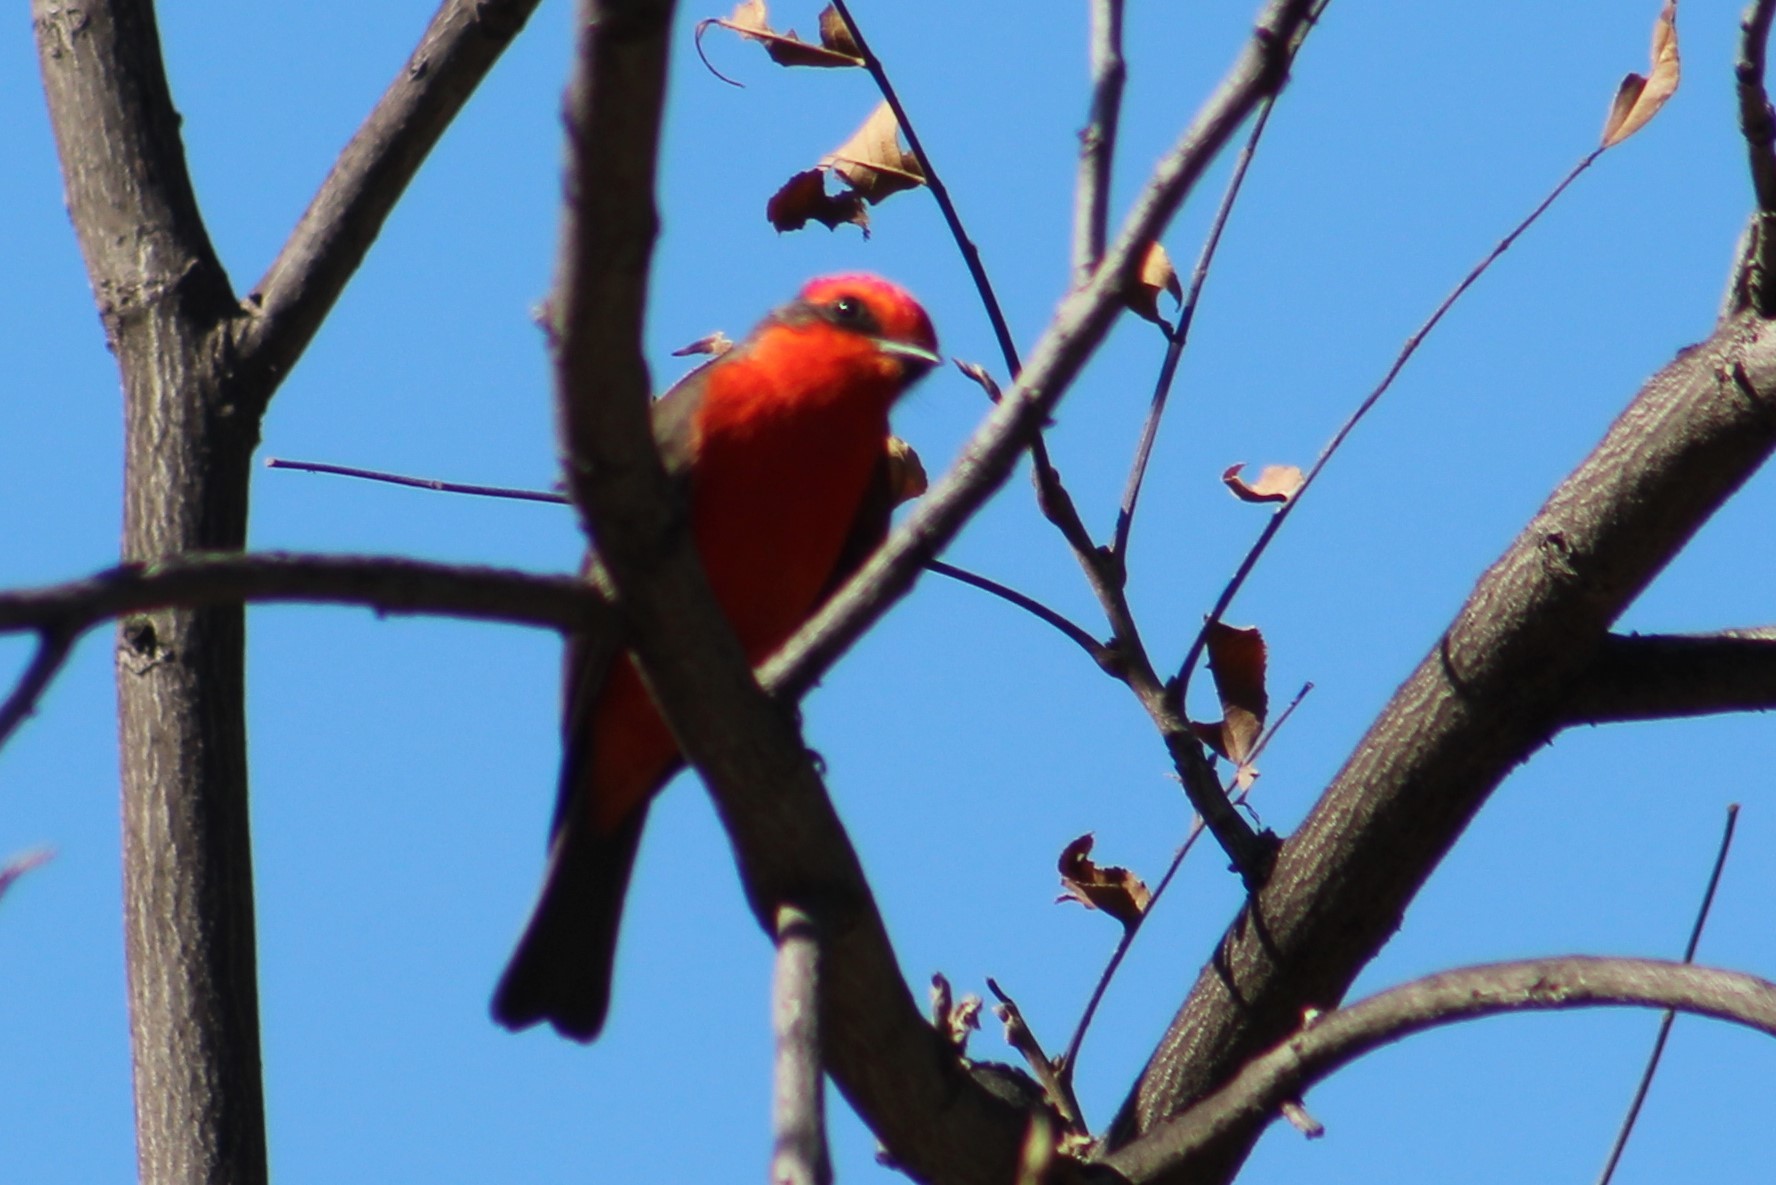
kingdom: Animalia
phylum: Chordata
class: Aves
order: Passeriformes
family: Tyrannidae
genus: Pyrocephalus
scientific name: Pyrocephalus rubinus
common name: Vermilion flycatcher
